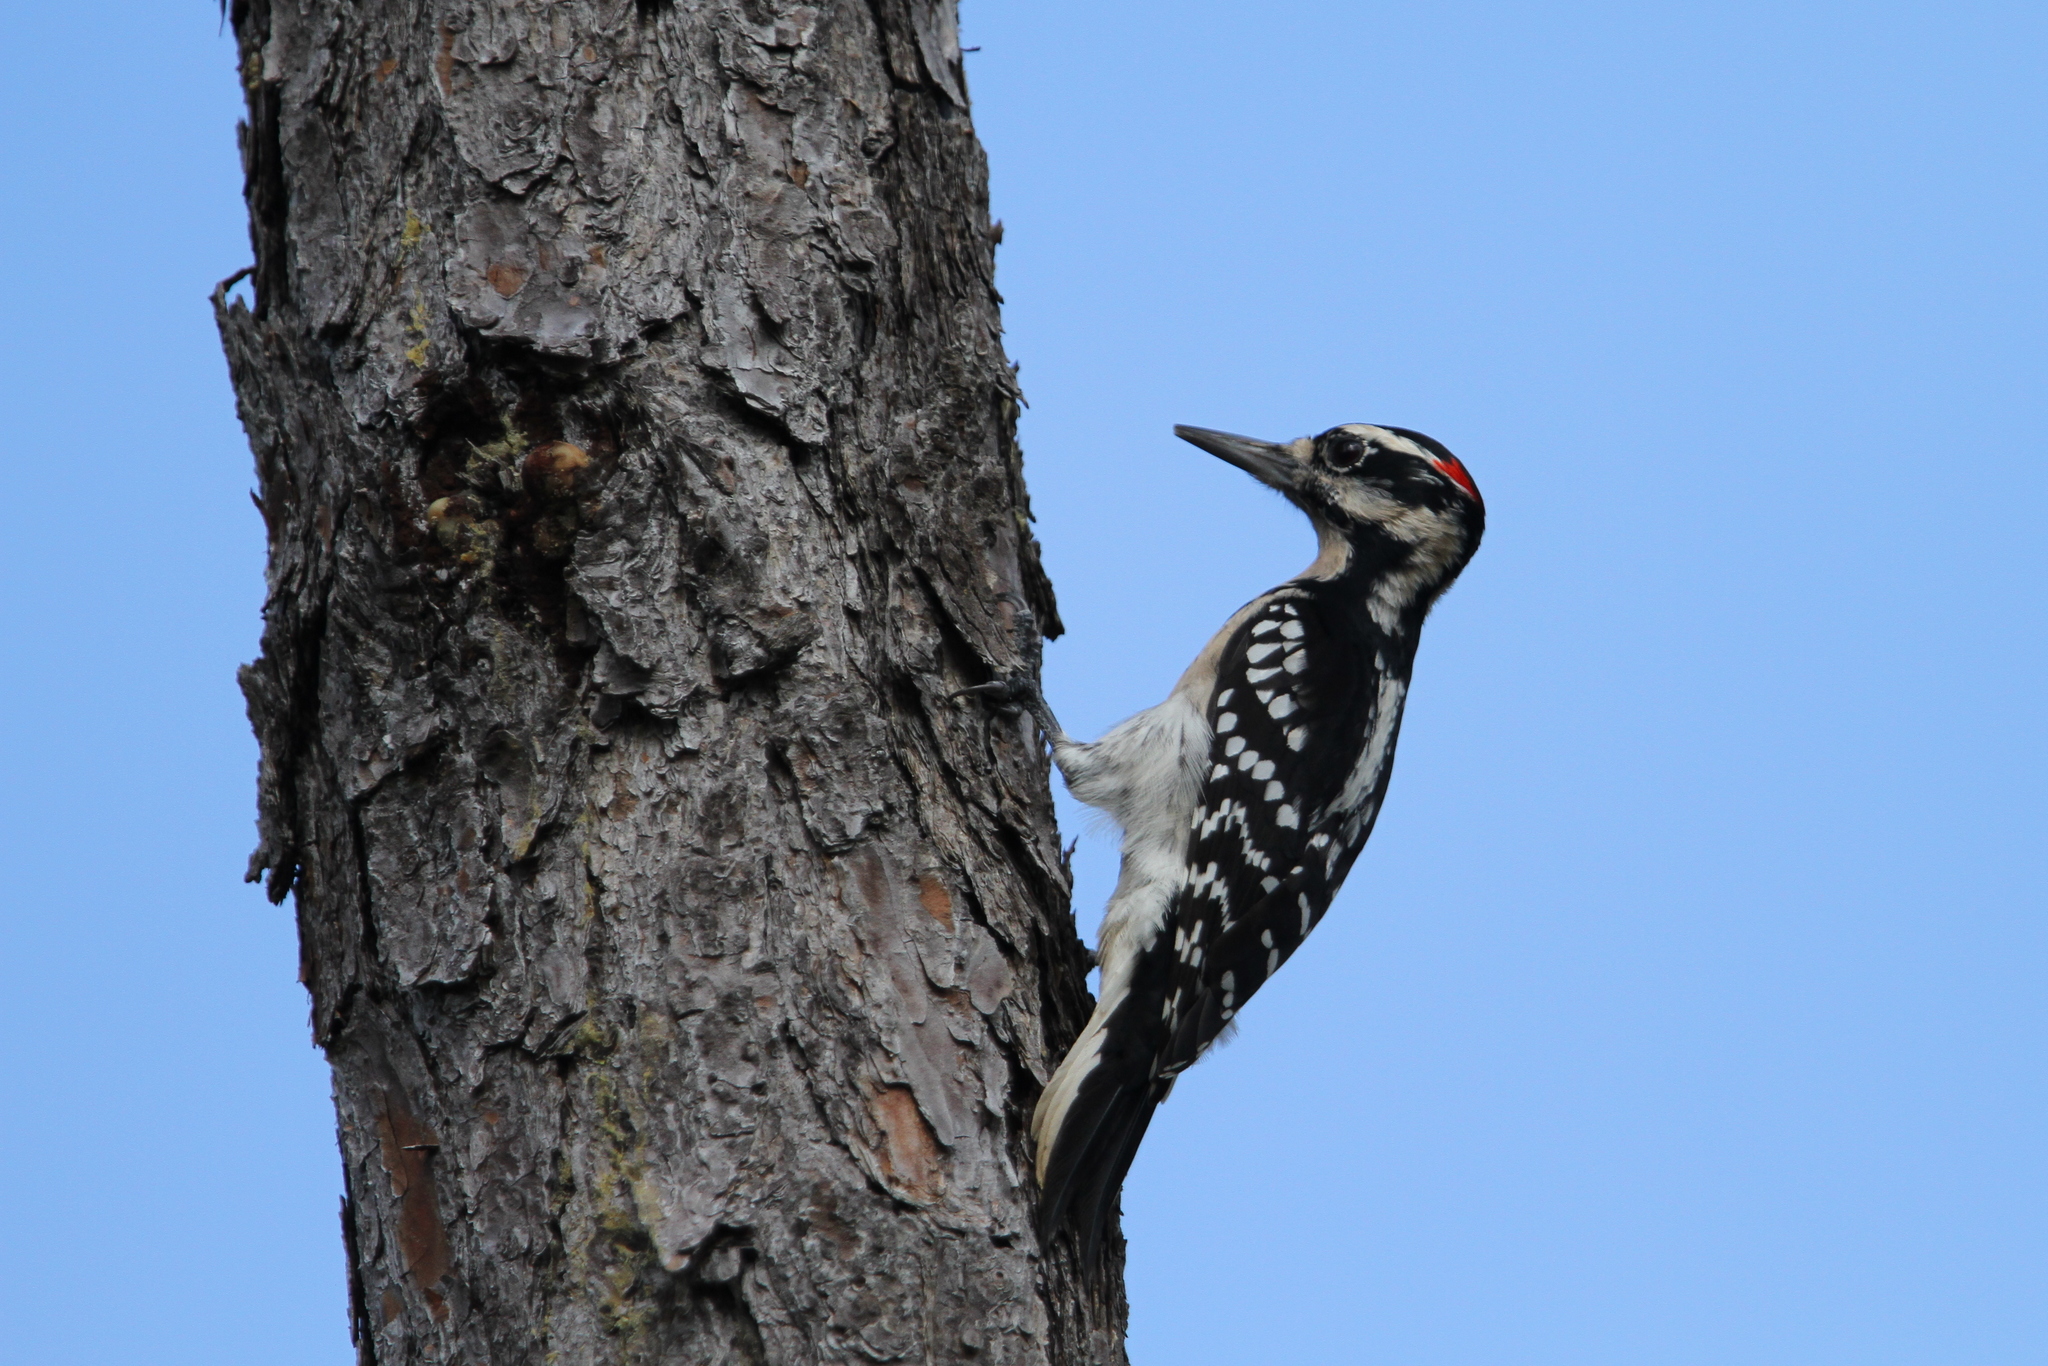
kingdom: Animalia
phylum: Chordata
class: Aves
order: Piciformes
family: Picidae
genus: Leuconotopicus
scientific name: Leuconotopicus villosus
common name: Hairy woodpecker
